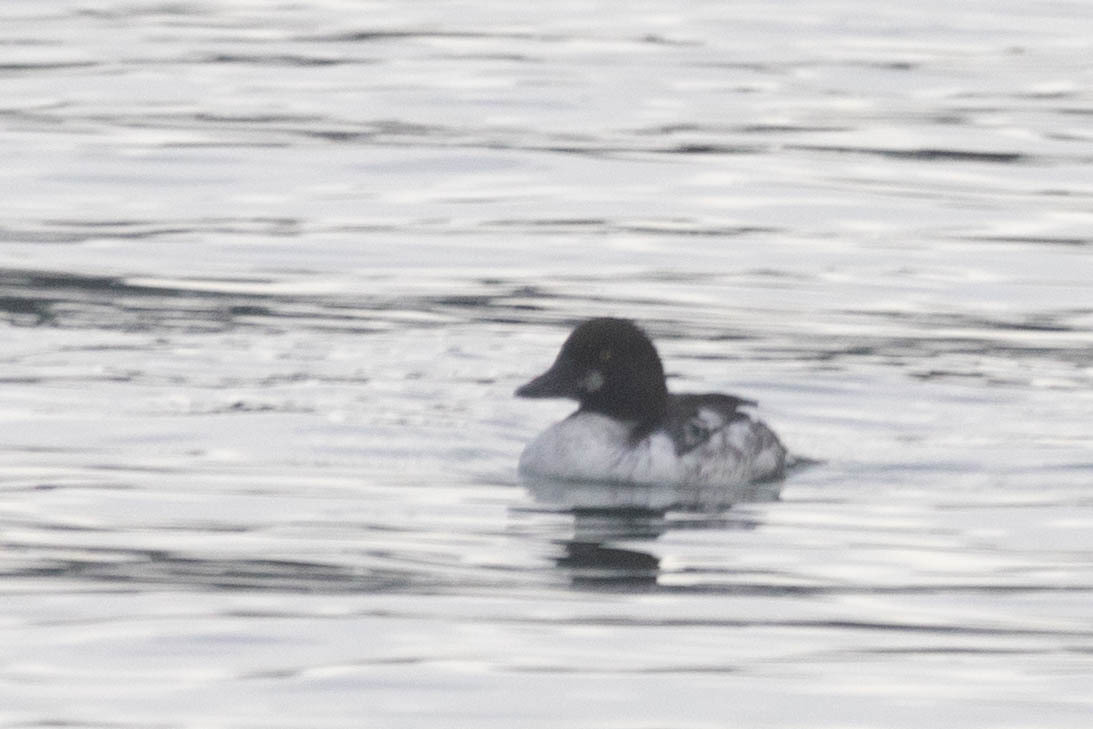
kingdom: Animalia
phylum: Chordata
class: Aves
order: Anseriformes
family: Anatidae
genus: Bucephala
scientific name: Bucephala clangula
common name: Common goldeneye
